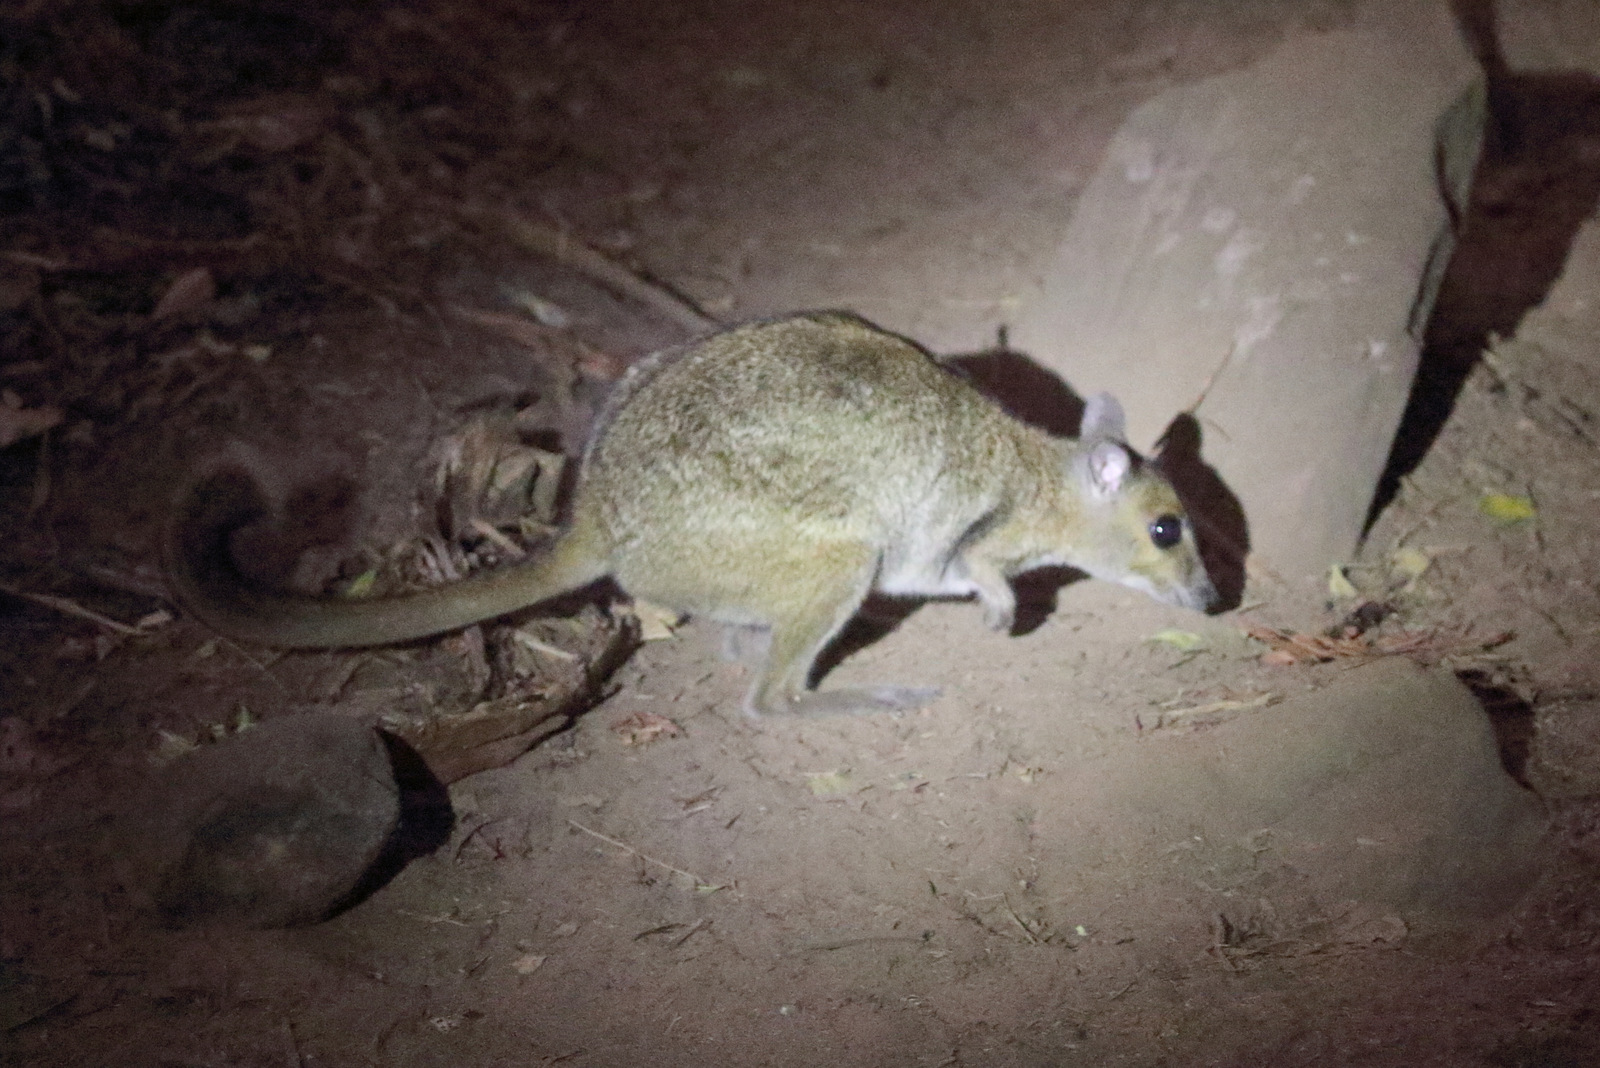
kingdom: Animalia
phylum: Chordata
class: Mammalia
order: Diprotodontia
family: Macropodidae
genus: Petrogale
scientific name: Petrogale burbidgei
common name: Monjon
